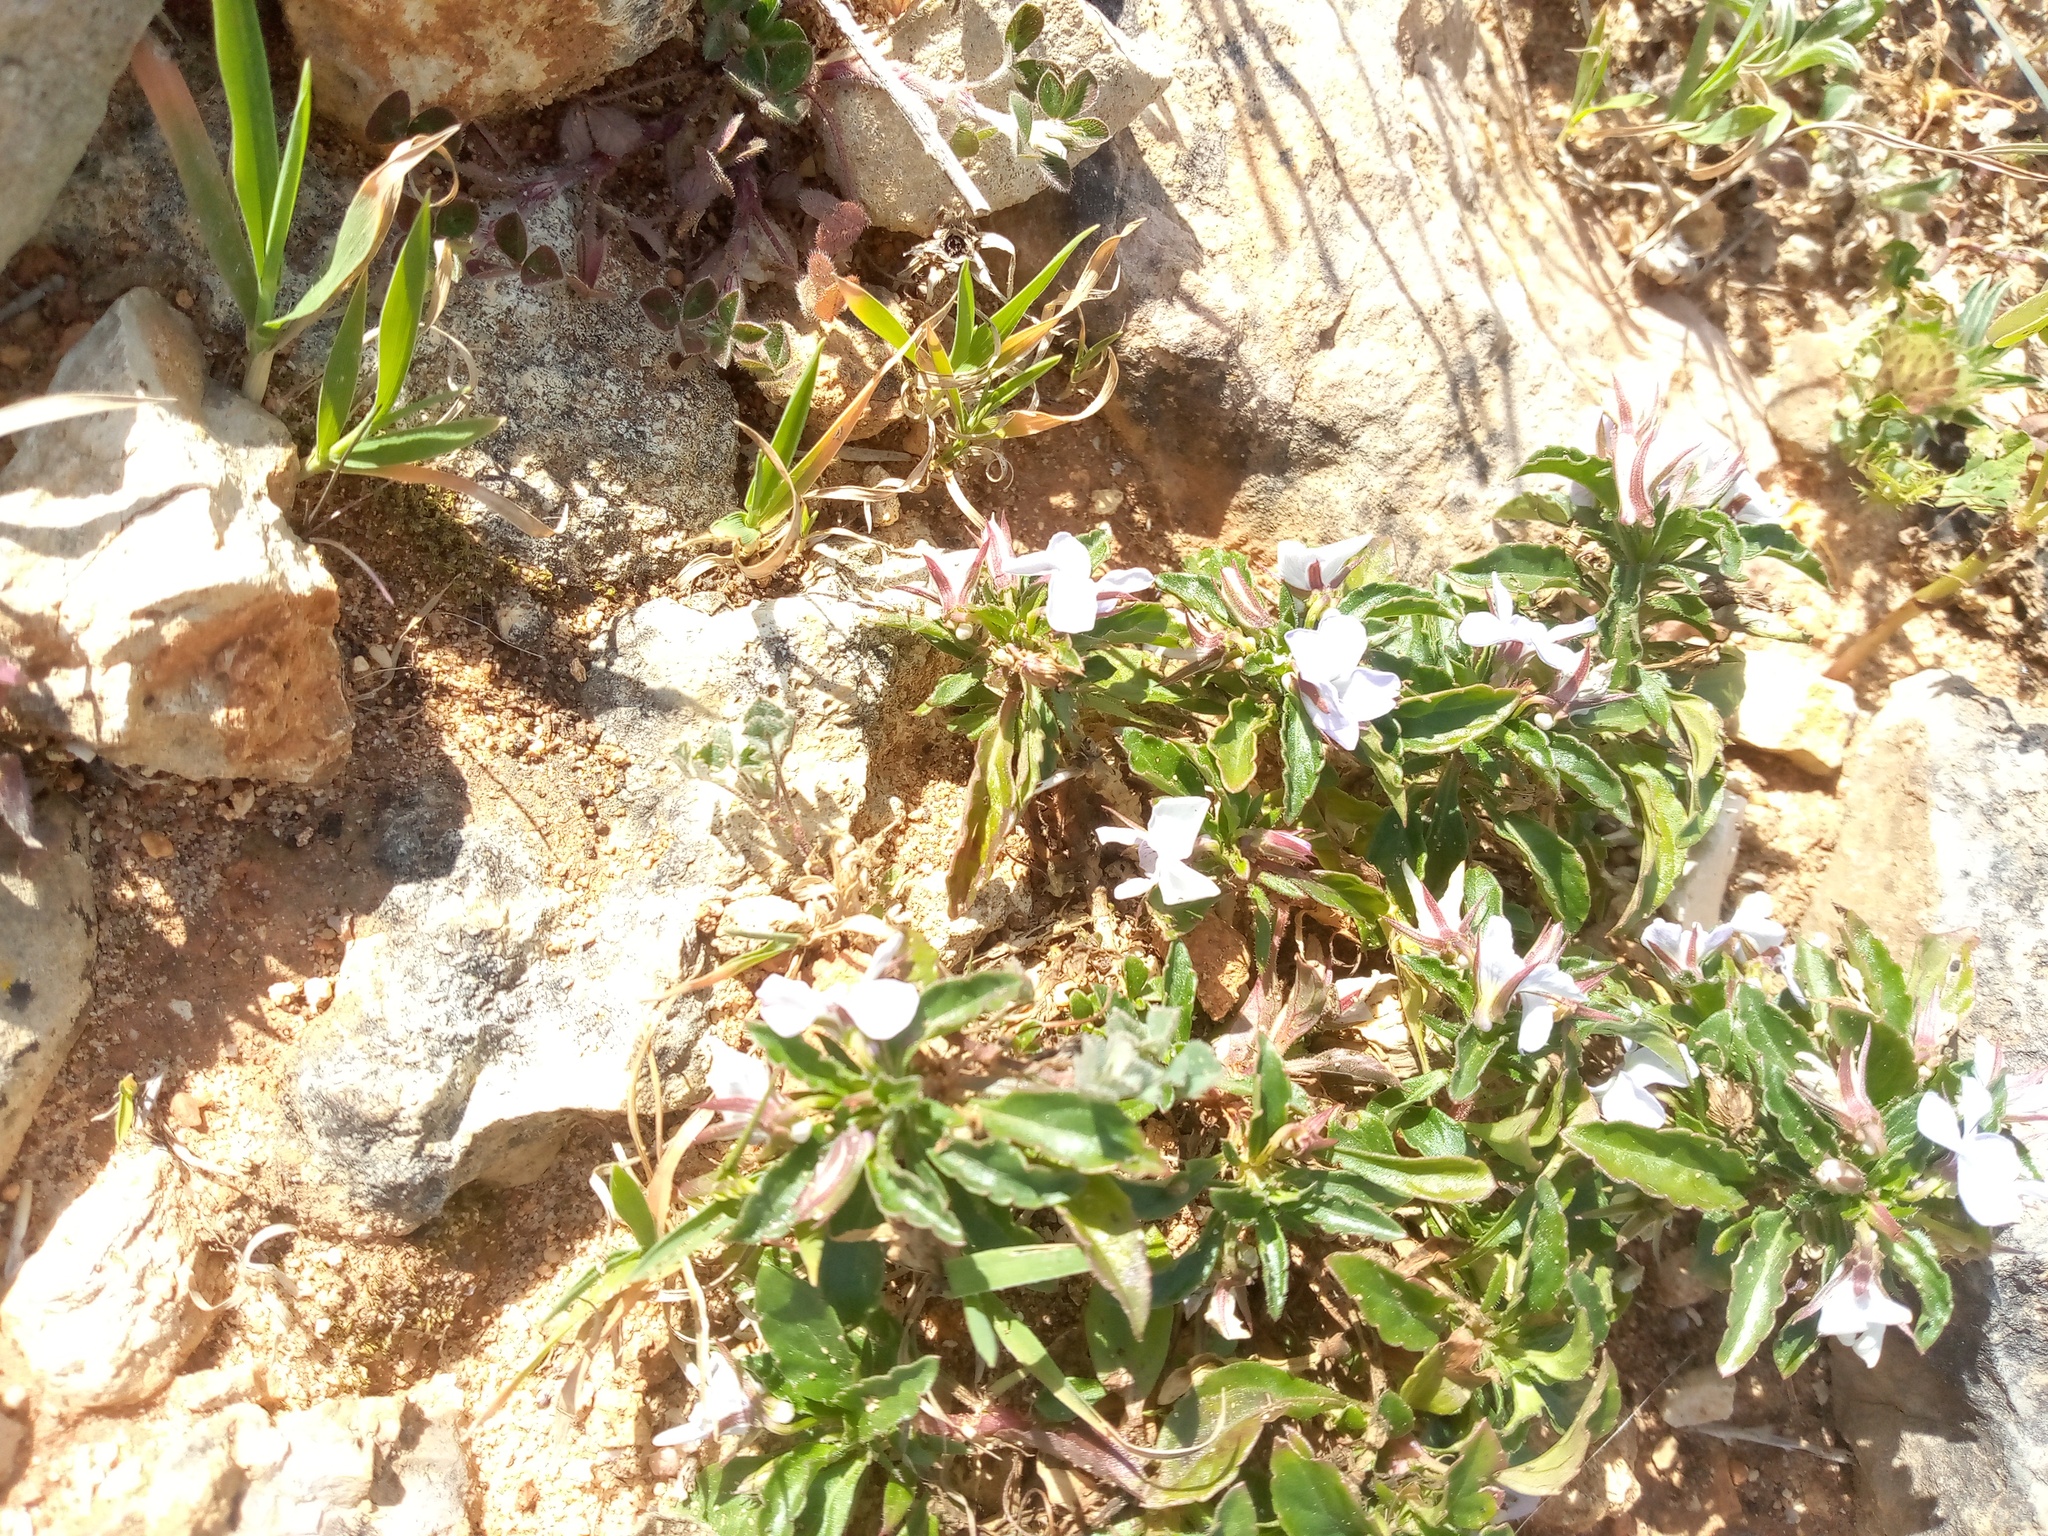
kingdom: Plantae
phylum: Tracheophyta
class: Magnoliopsida
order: Malpighiales
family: Violaceae
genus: Viola
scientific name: Viola arborescens
